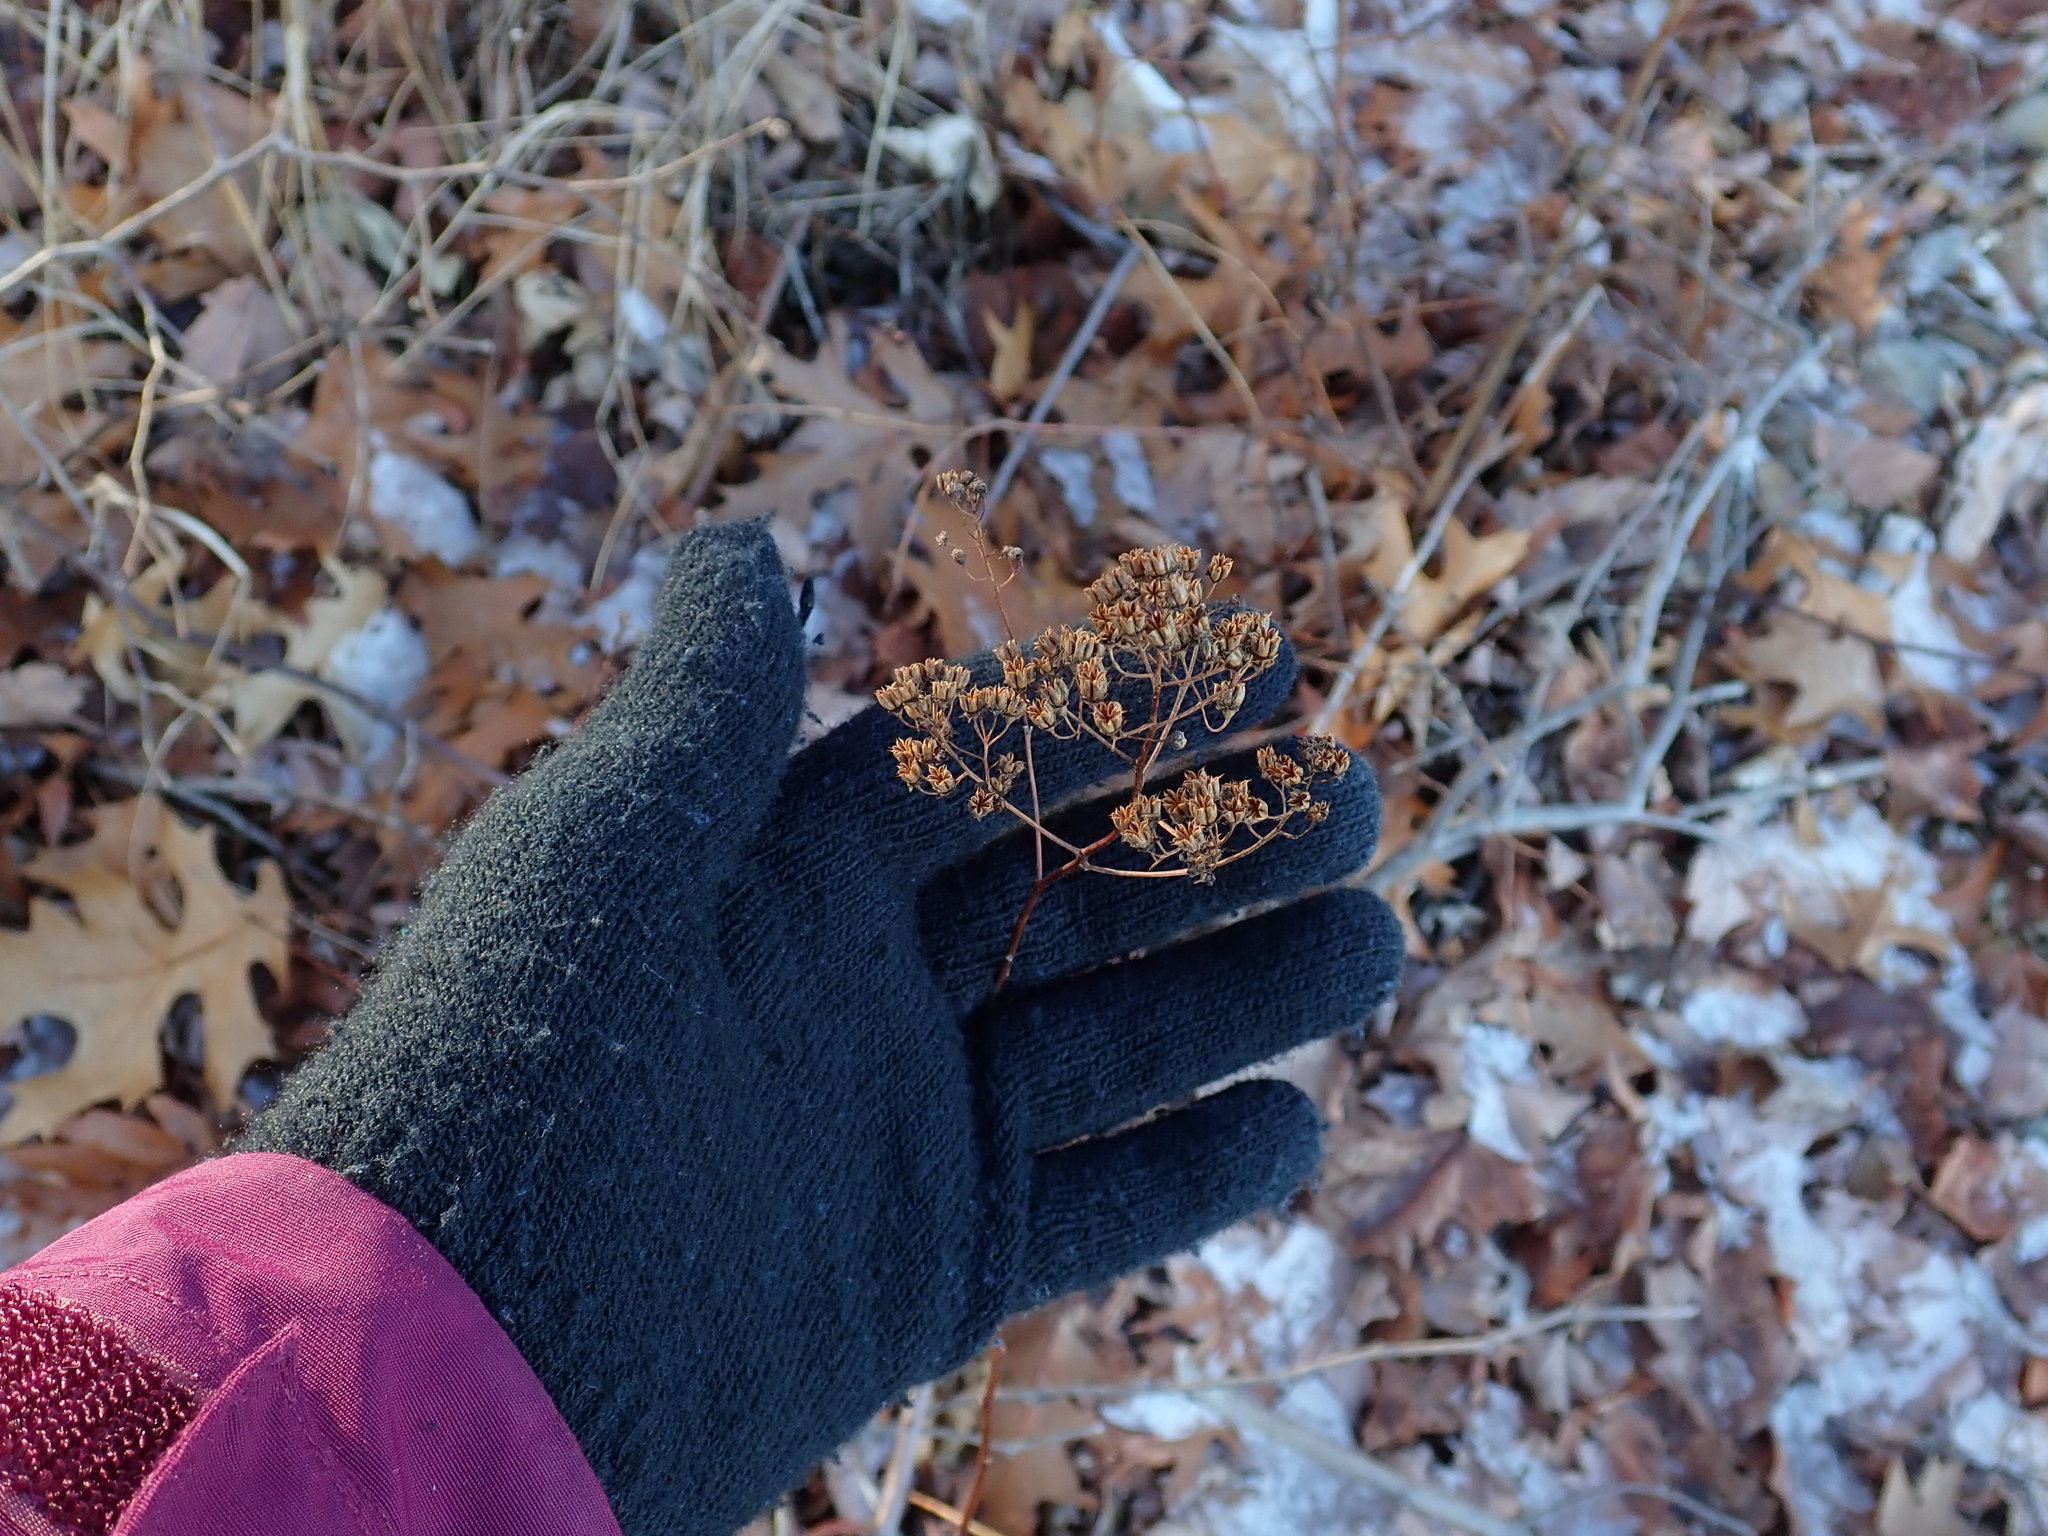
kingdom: Plantae
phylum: Tracheophyta
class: Magnoliopsida
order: Rosales
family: Rosaceae
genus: Spiraea
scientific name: Spiraea alba
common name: Pale bridewort
